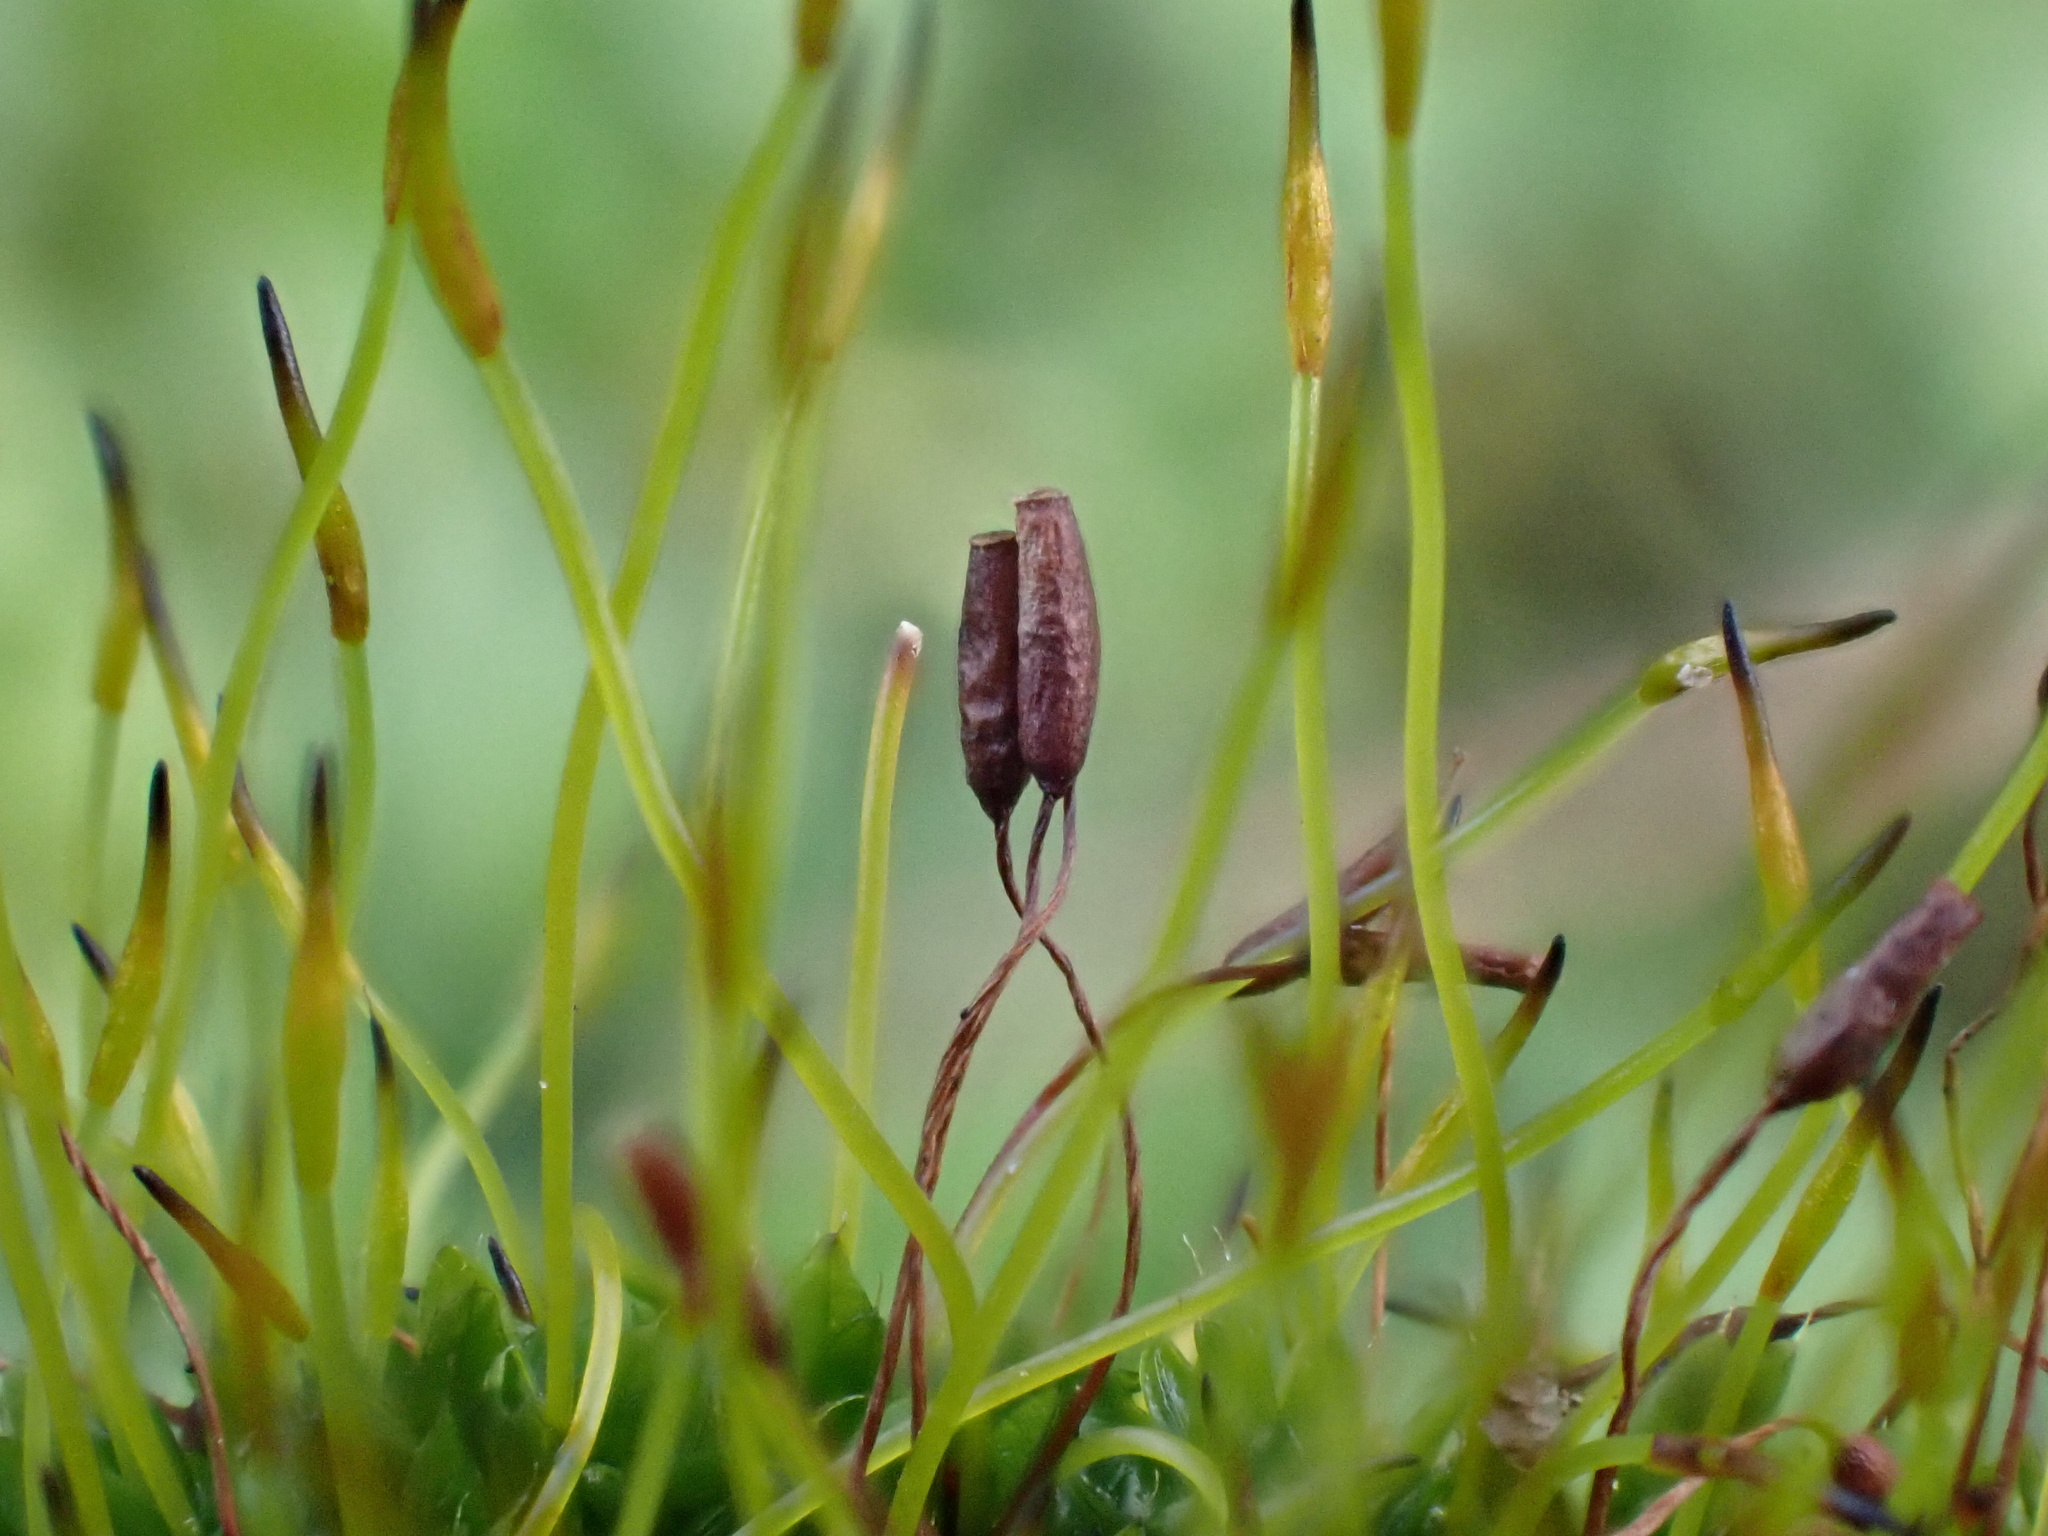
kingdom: Plantae
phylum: Bryophyta
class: Bryopsida
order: Pottiales
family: Pottiaceae
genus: Tortula
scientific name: Tortula muralis
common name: Wall screw-moss
